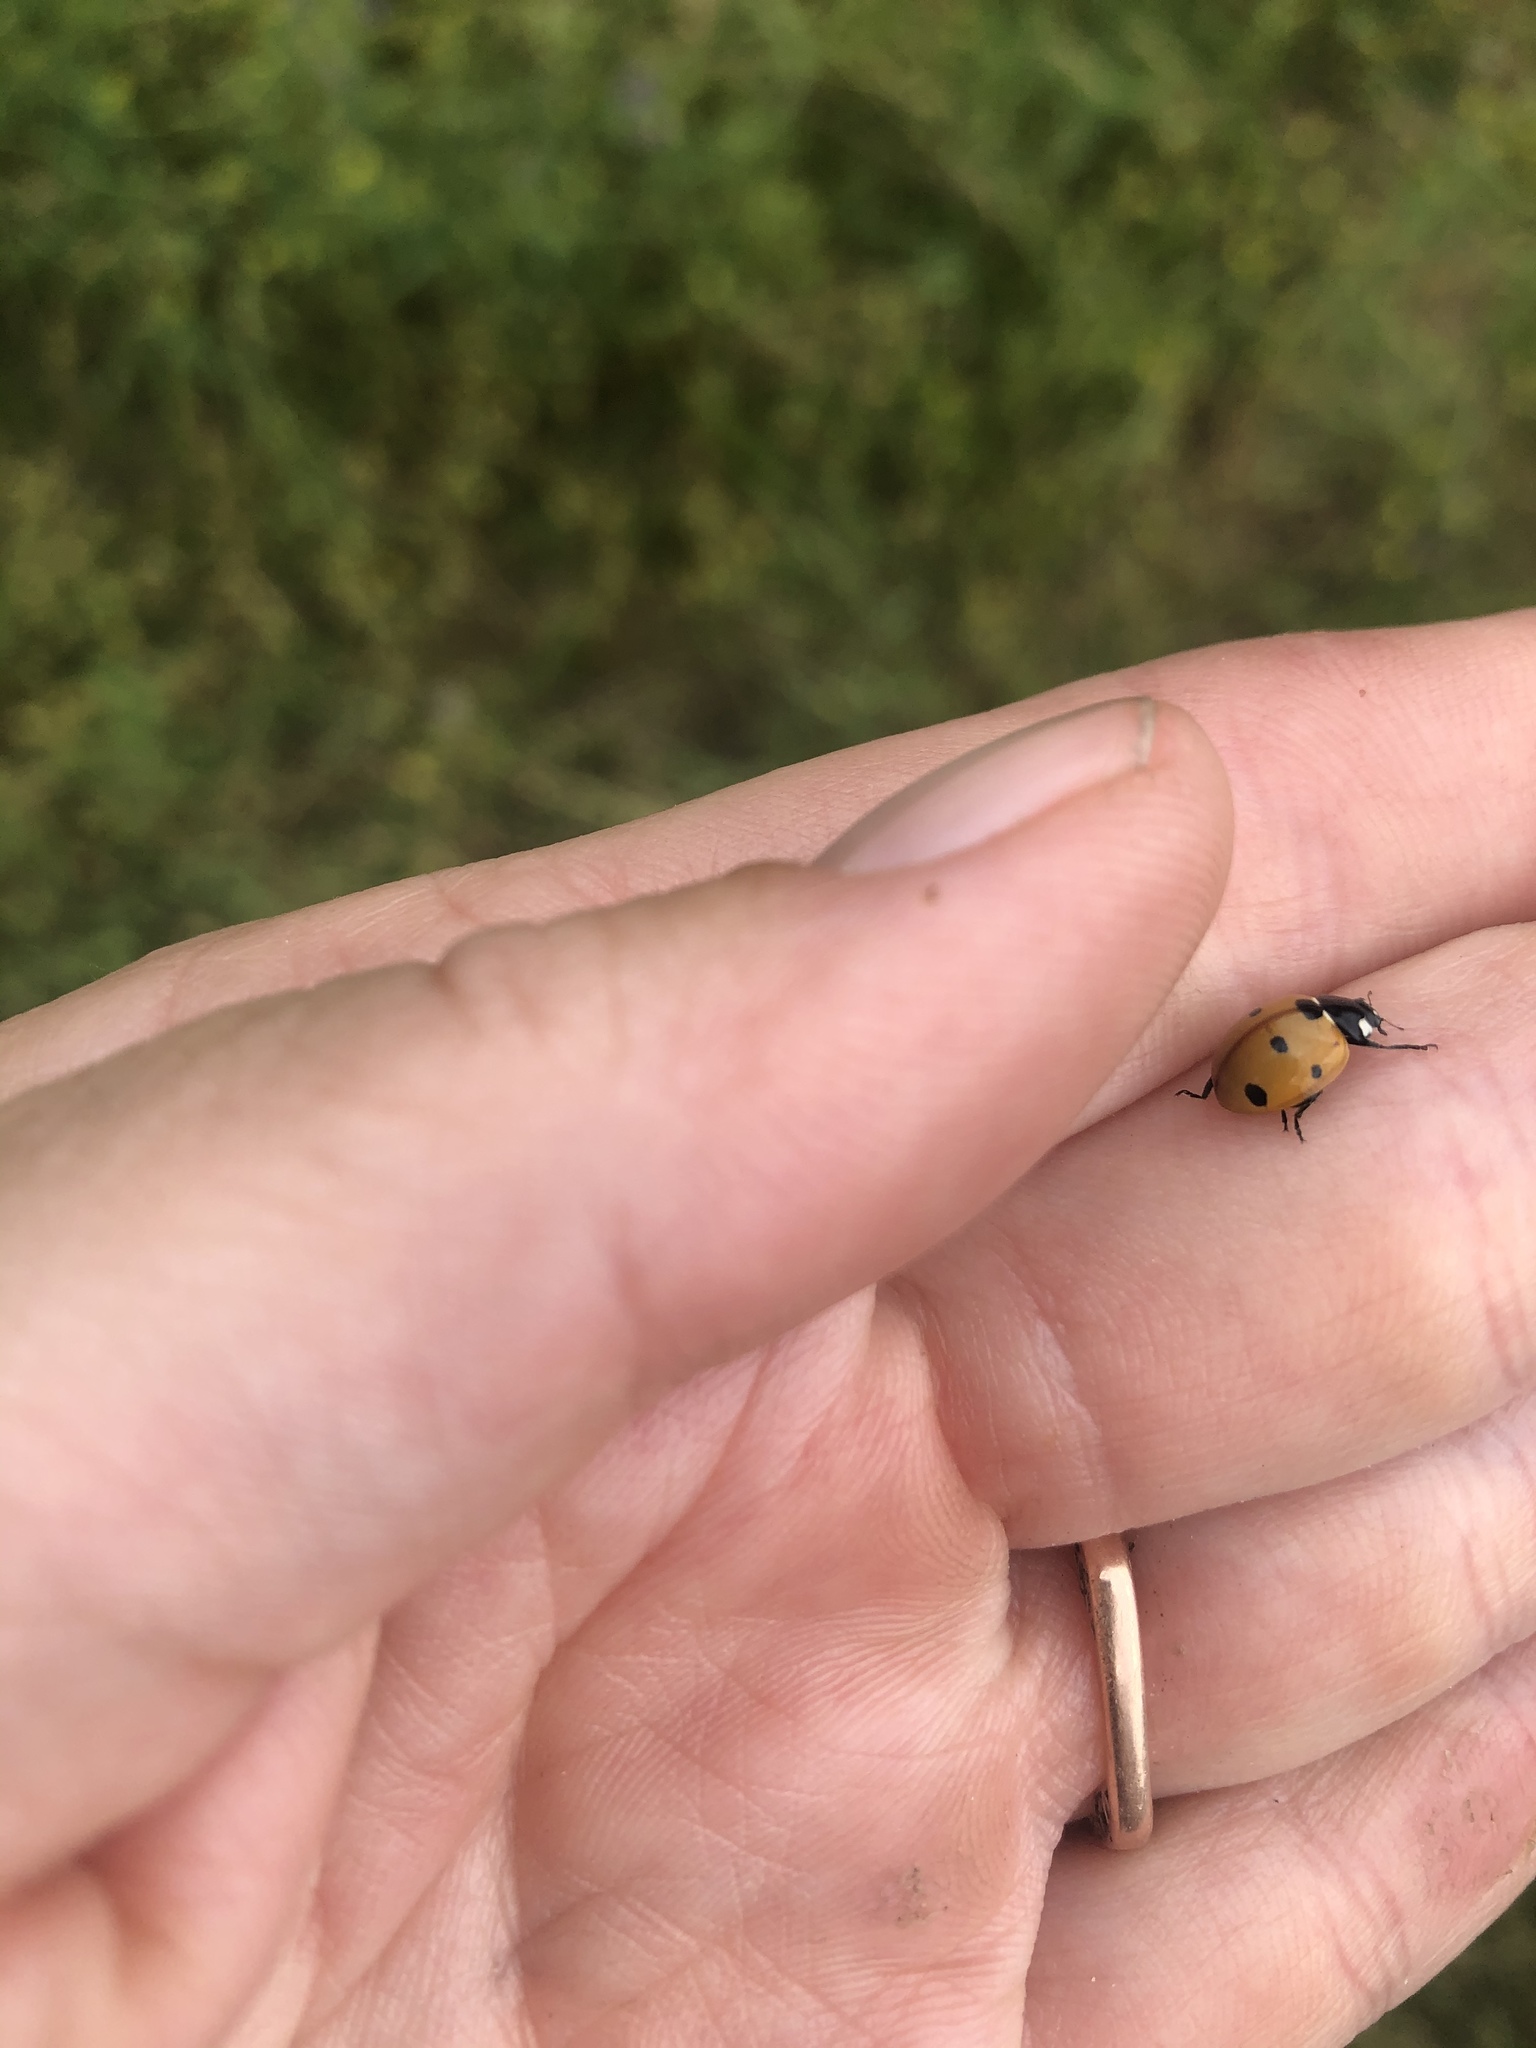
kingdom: Animalia
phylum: Arthropoda
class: Insecta
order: Coleoptera
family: Coccinellidae
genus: Coccinella
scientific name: Coccinella septempunctata
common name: Sevenspotted lady beetle
